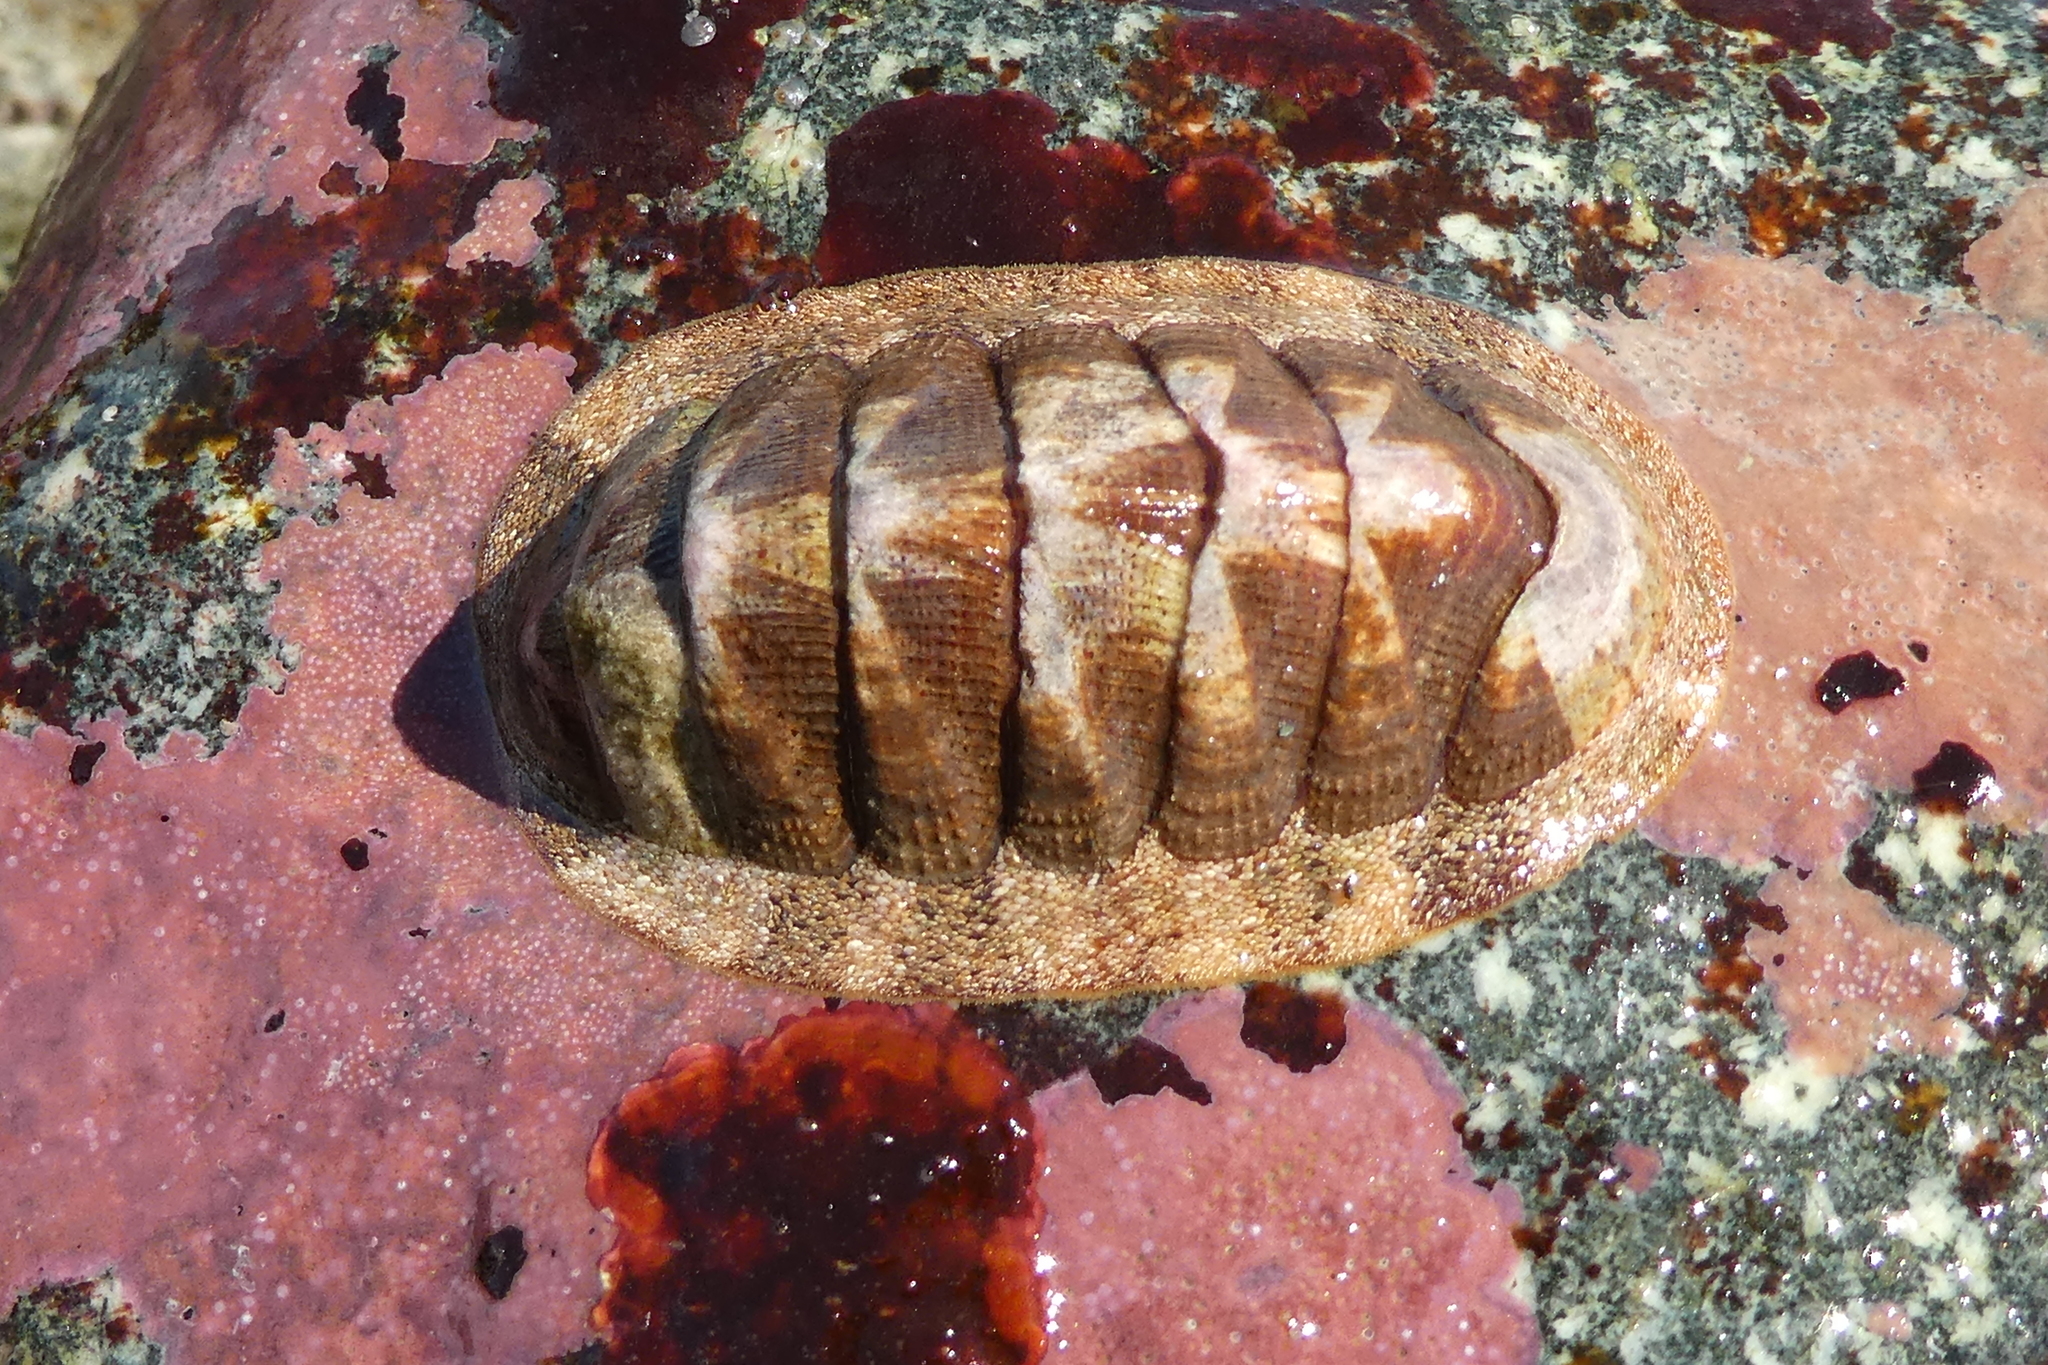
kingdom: Animalia
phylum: Mollusca
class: Polyplacophora
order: Chitonida
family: Ischnochitonidae
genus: Lepidozona
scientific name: Lepidozona mertensii
